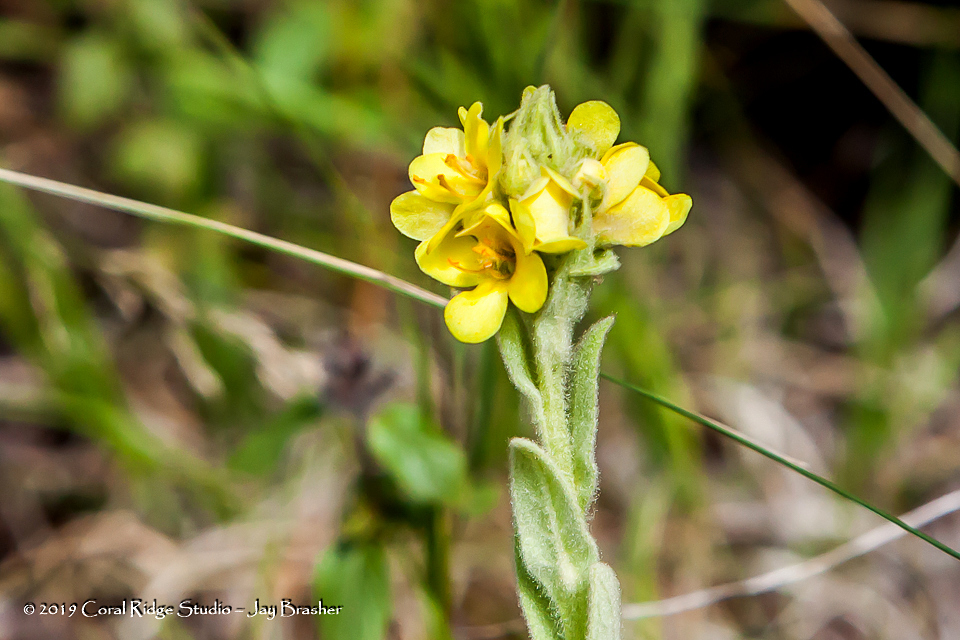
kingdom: Plantae
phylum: Tracheophyta
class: Magnoliopsida
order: Lamiales
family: Scrophulariaceae
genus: Verbascum
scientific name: Verbascum thapsus
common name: Common mullein
